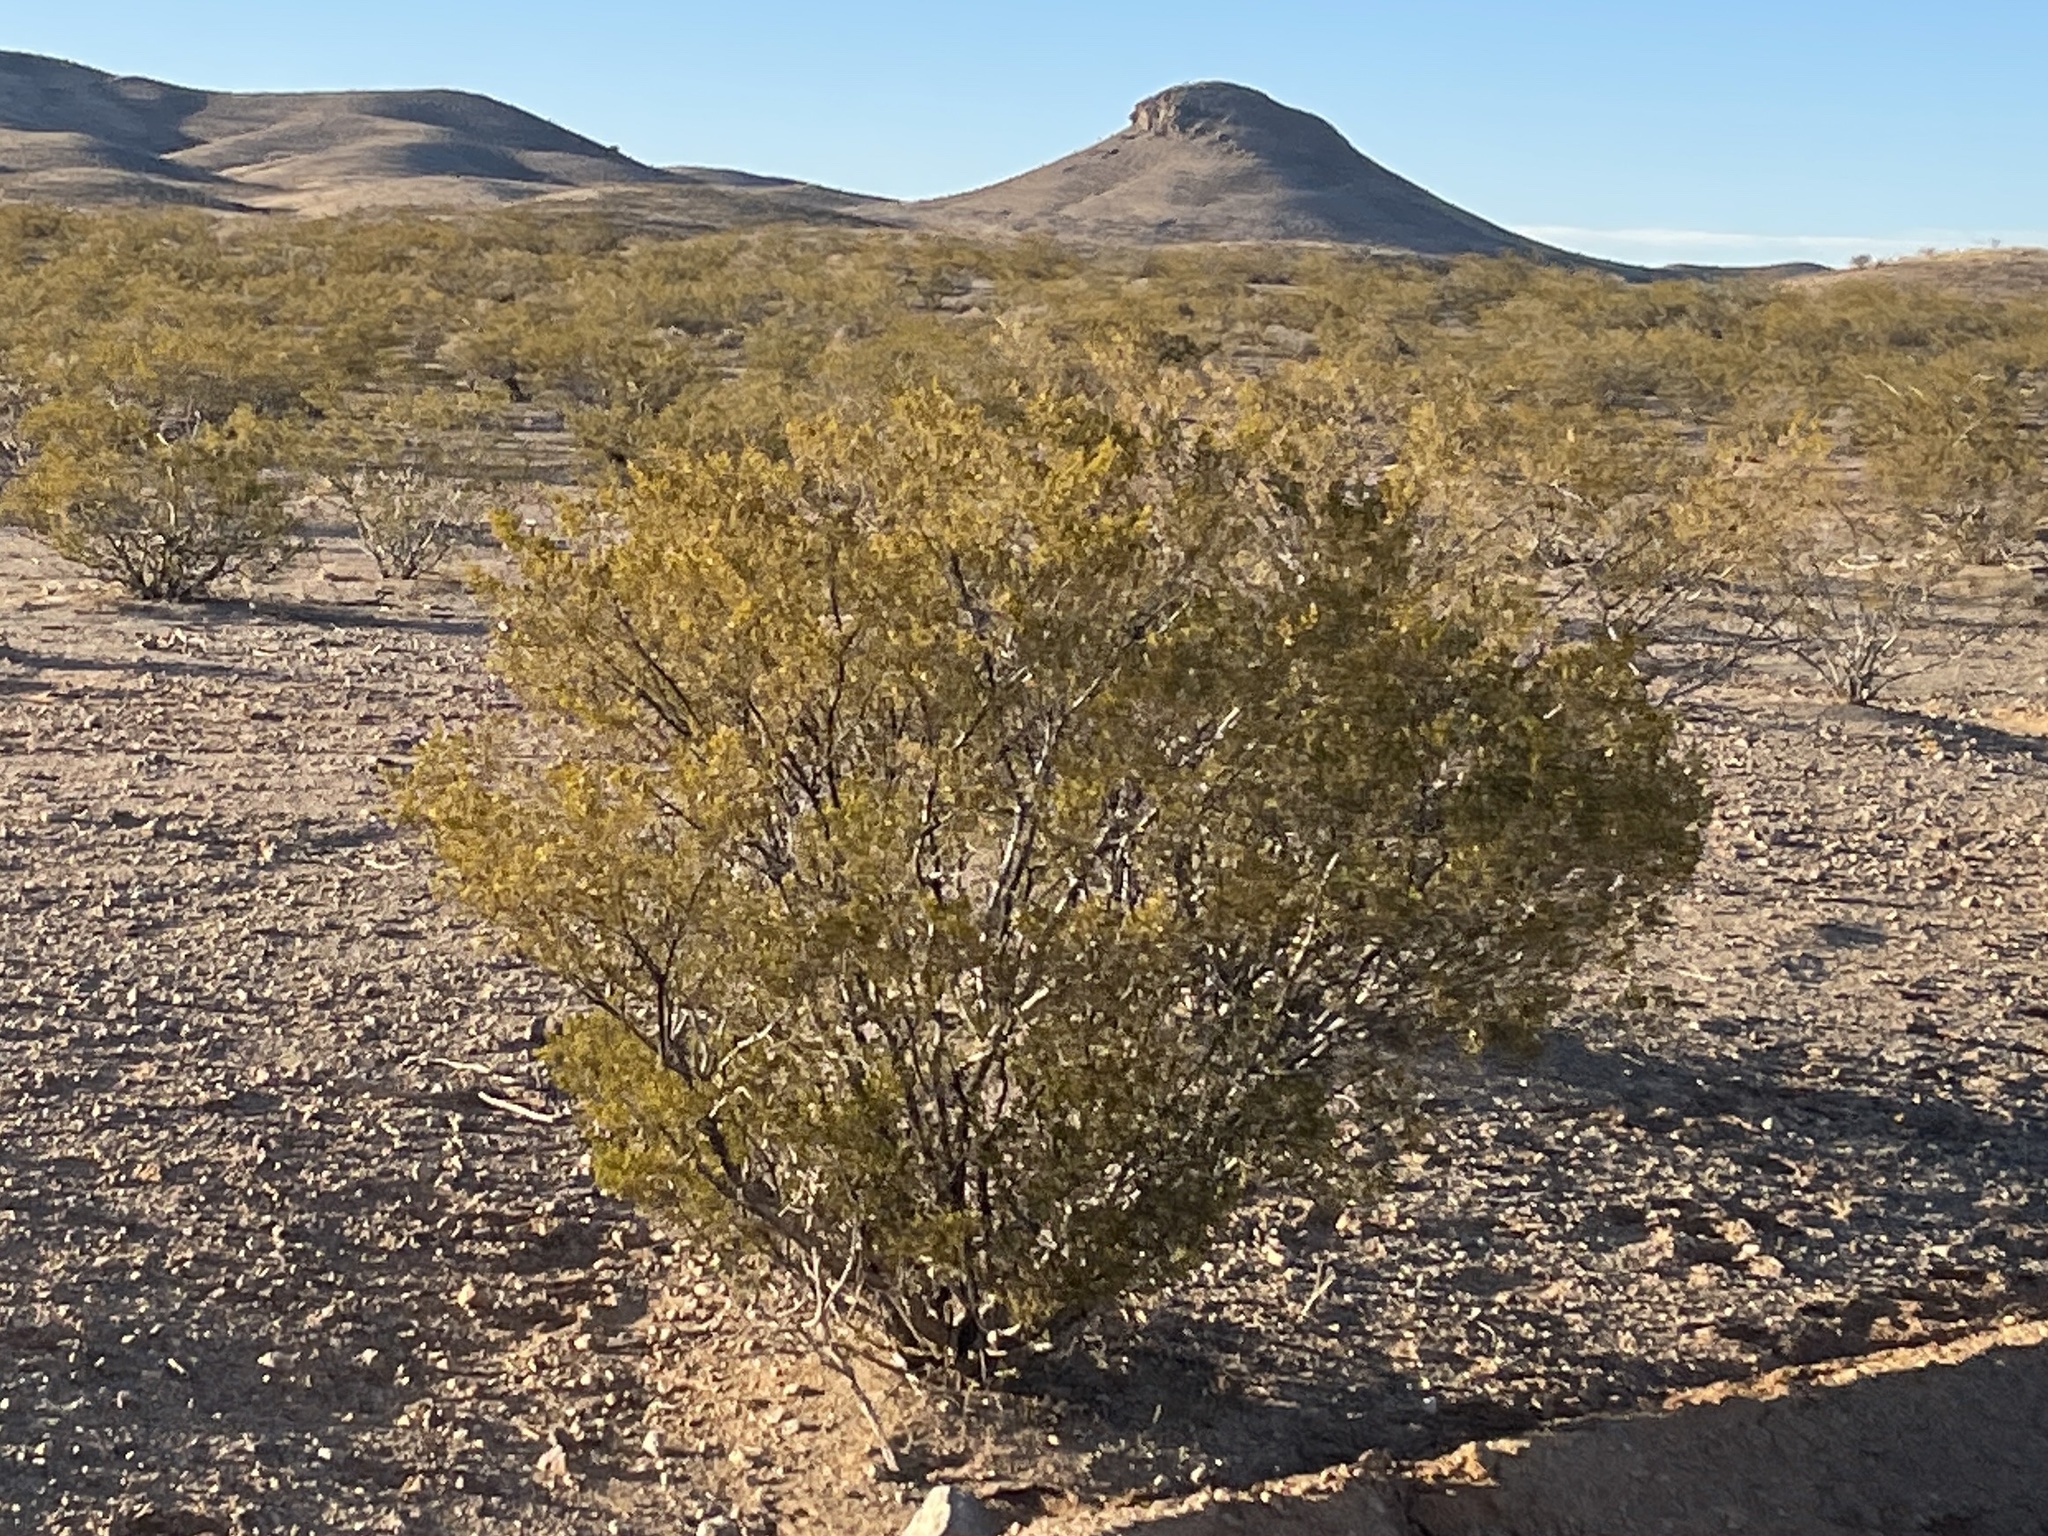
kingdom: Plantae
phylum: Tracheophyta
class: Magnoliopsida
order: Zygophyllales
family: Zygophyllaceae
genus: Larrea
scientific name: Larrea tridentata
